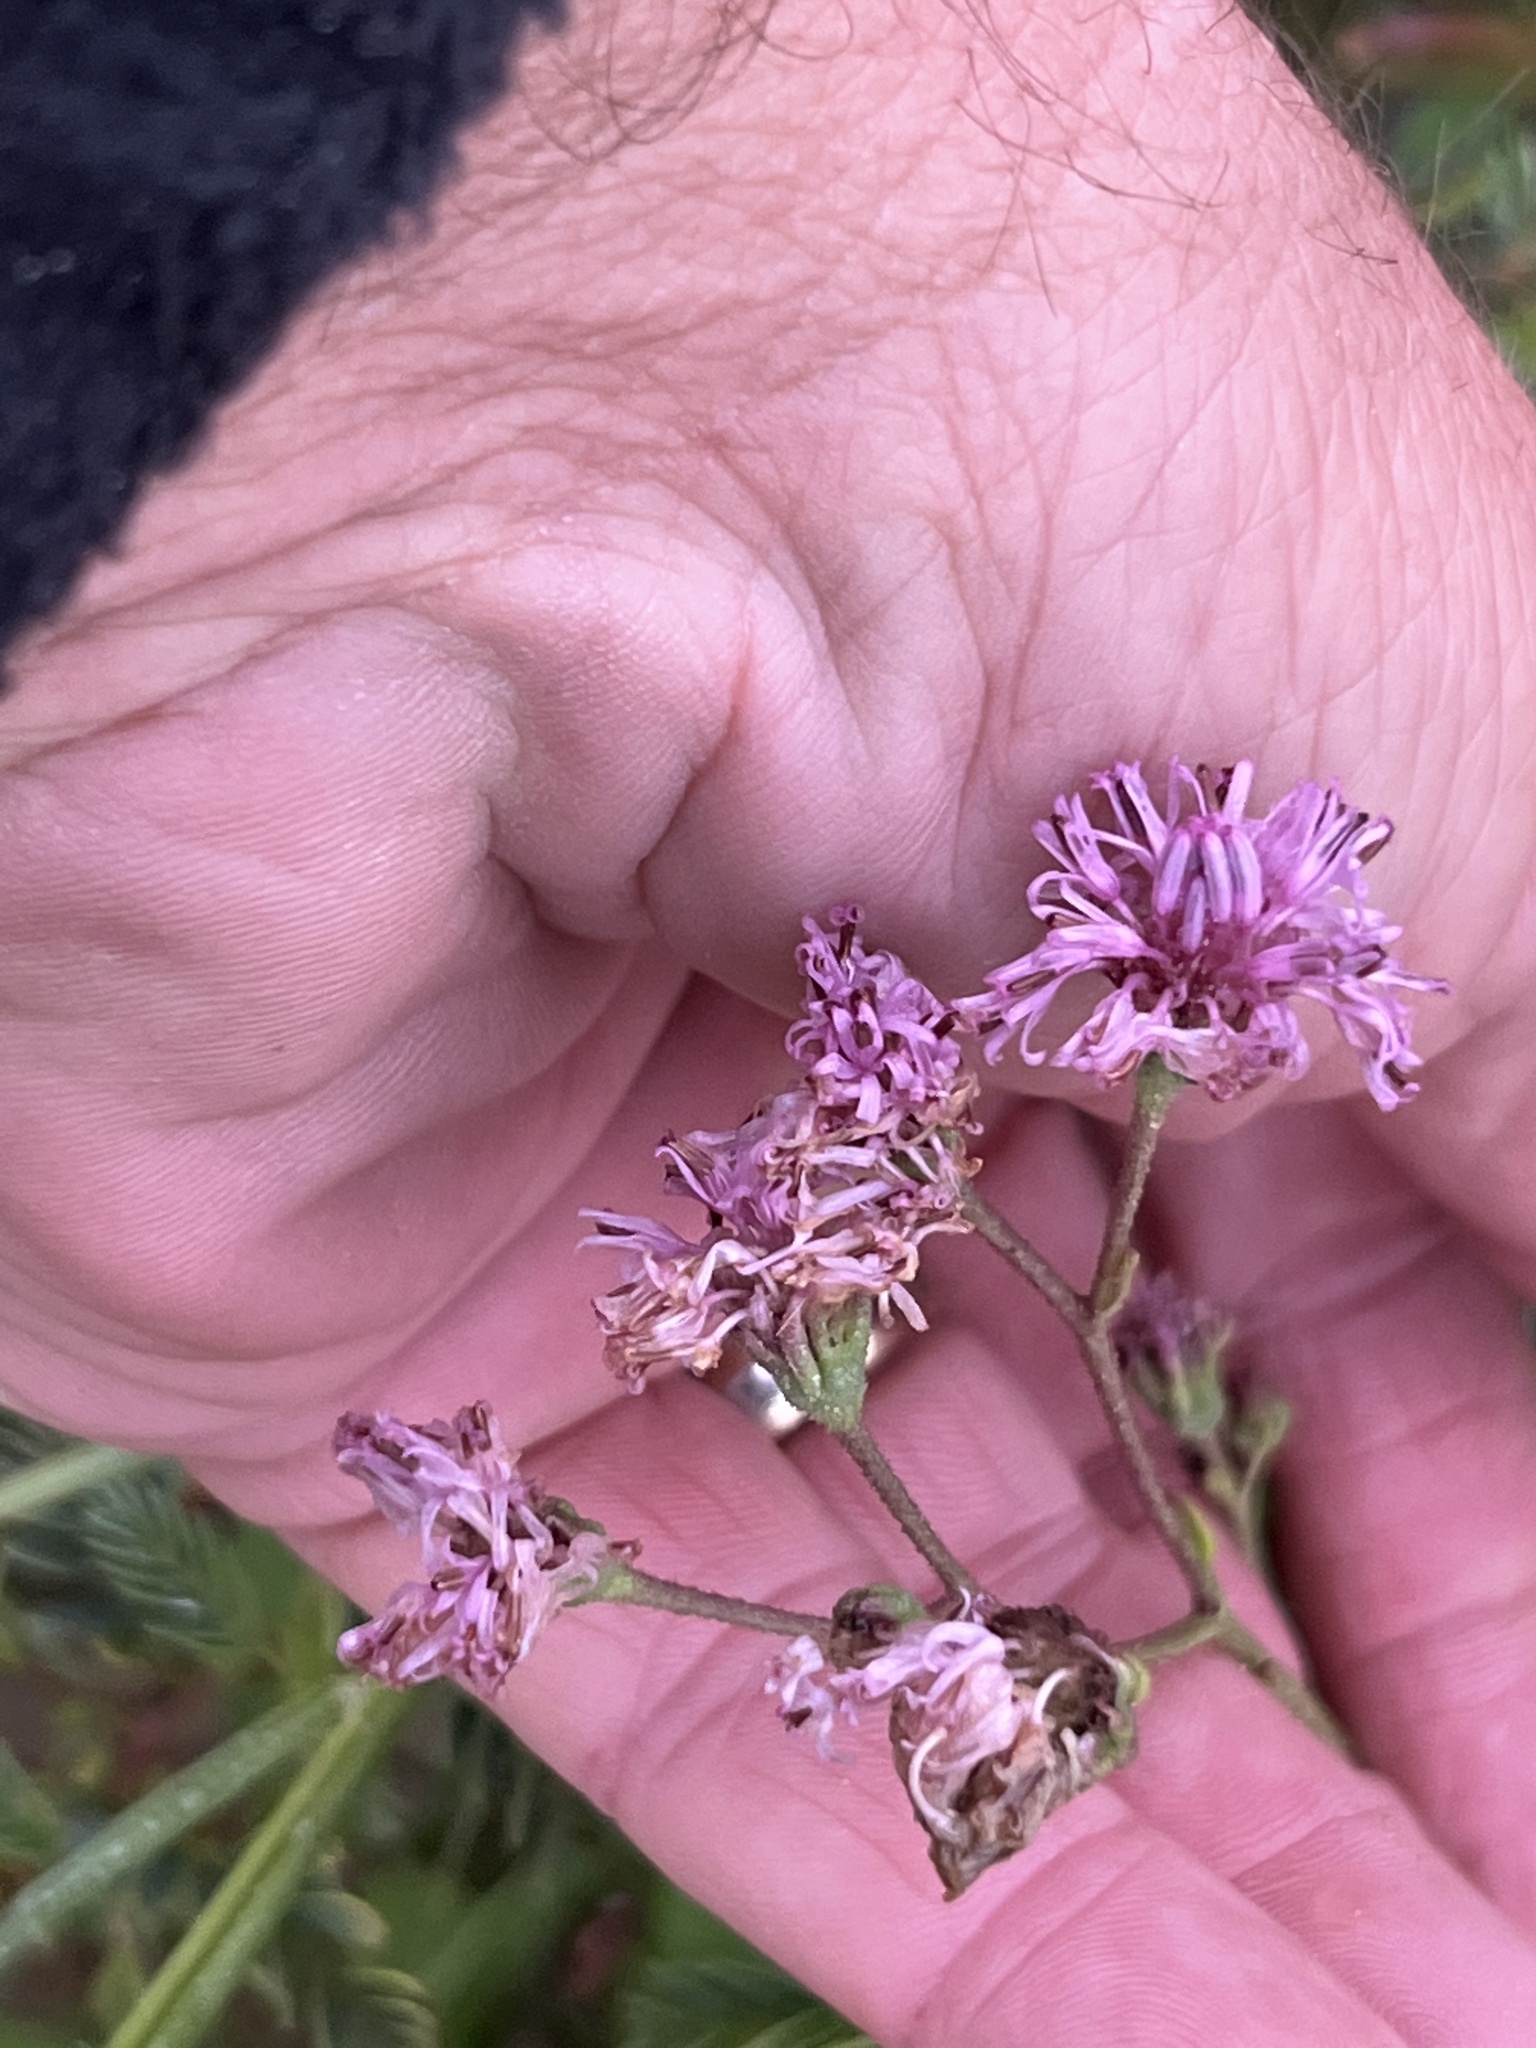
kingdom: Plantae
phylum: Tracheophyta
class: Magnoliopsida
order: Asterales
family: Asteraceae
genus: Palafoxia
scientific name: Palafoxia texana
